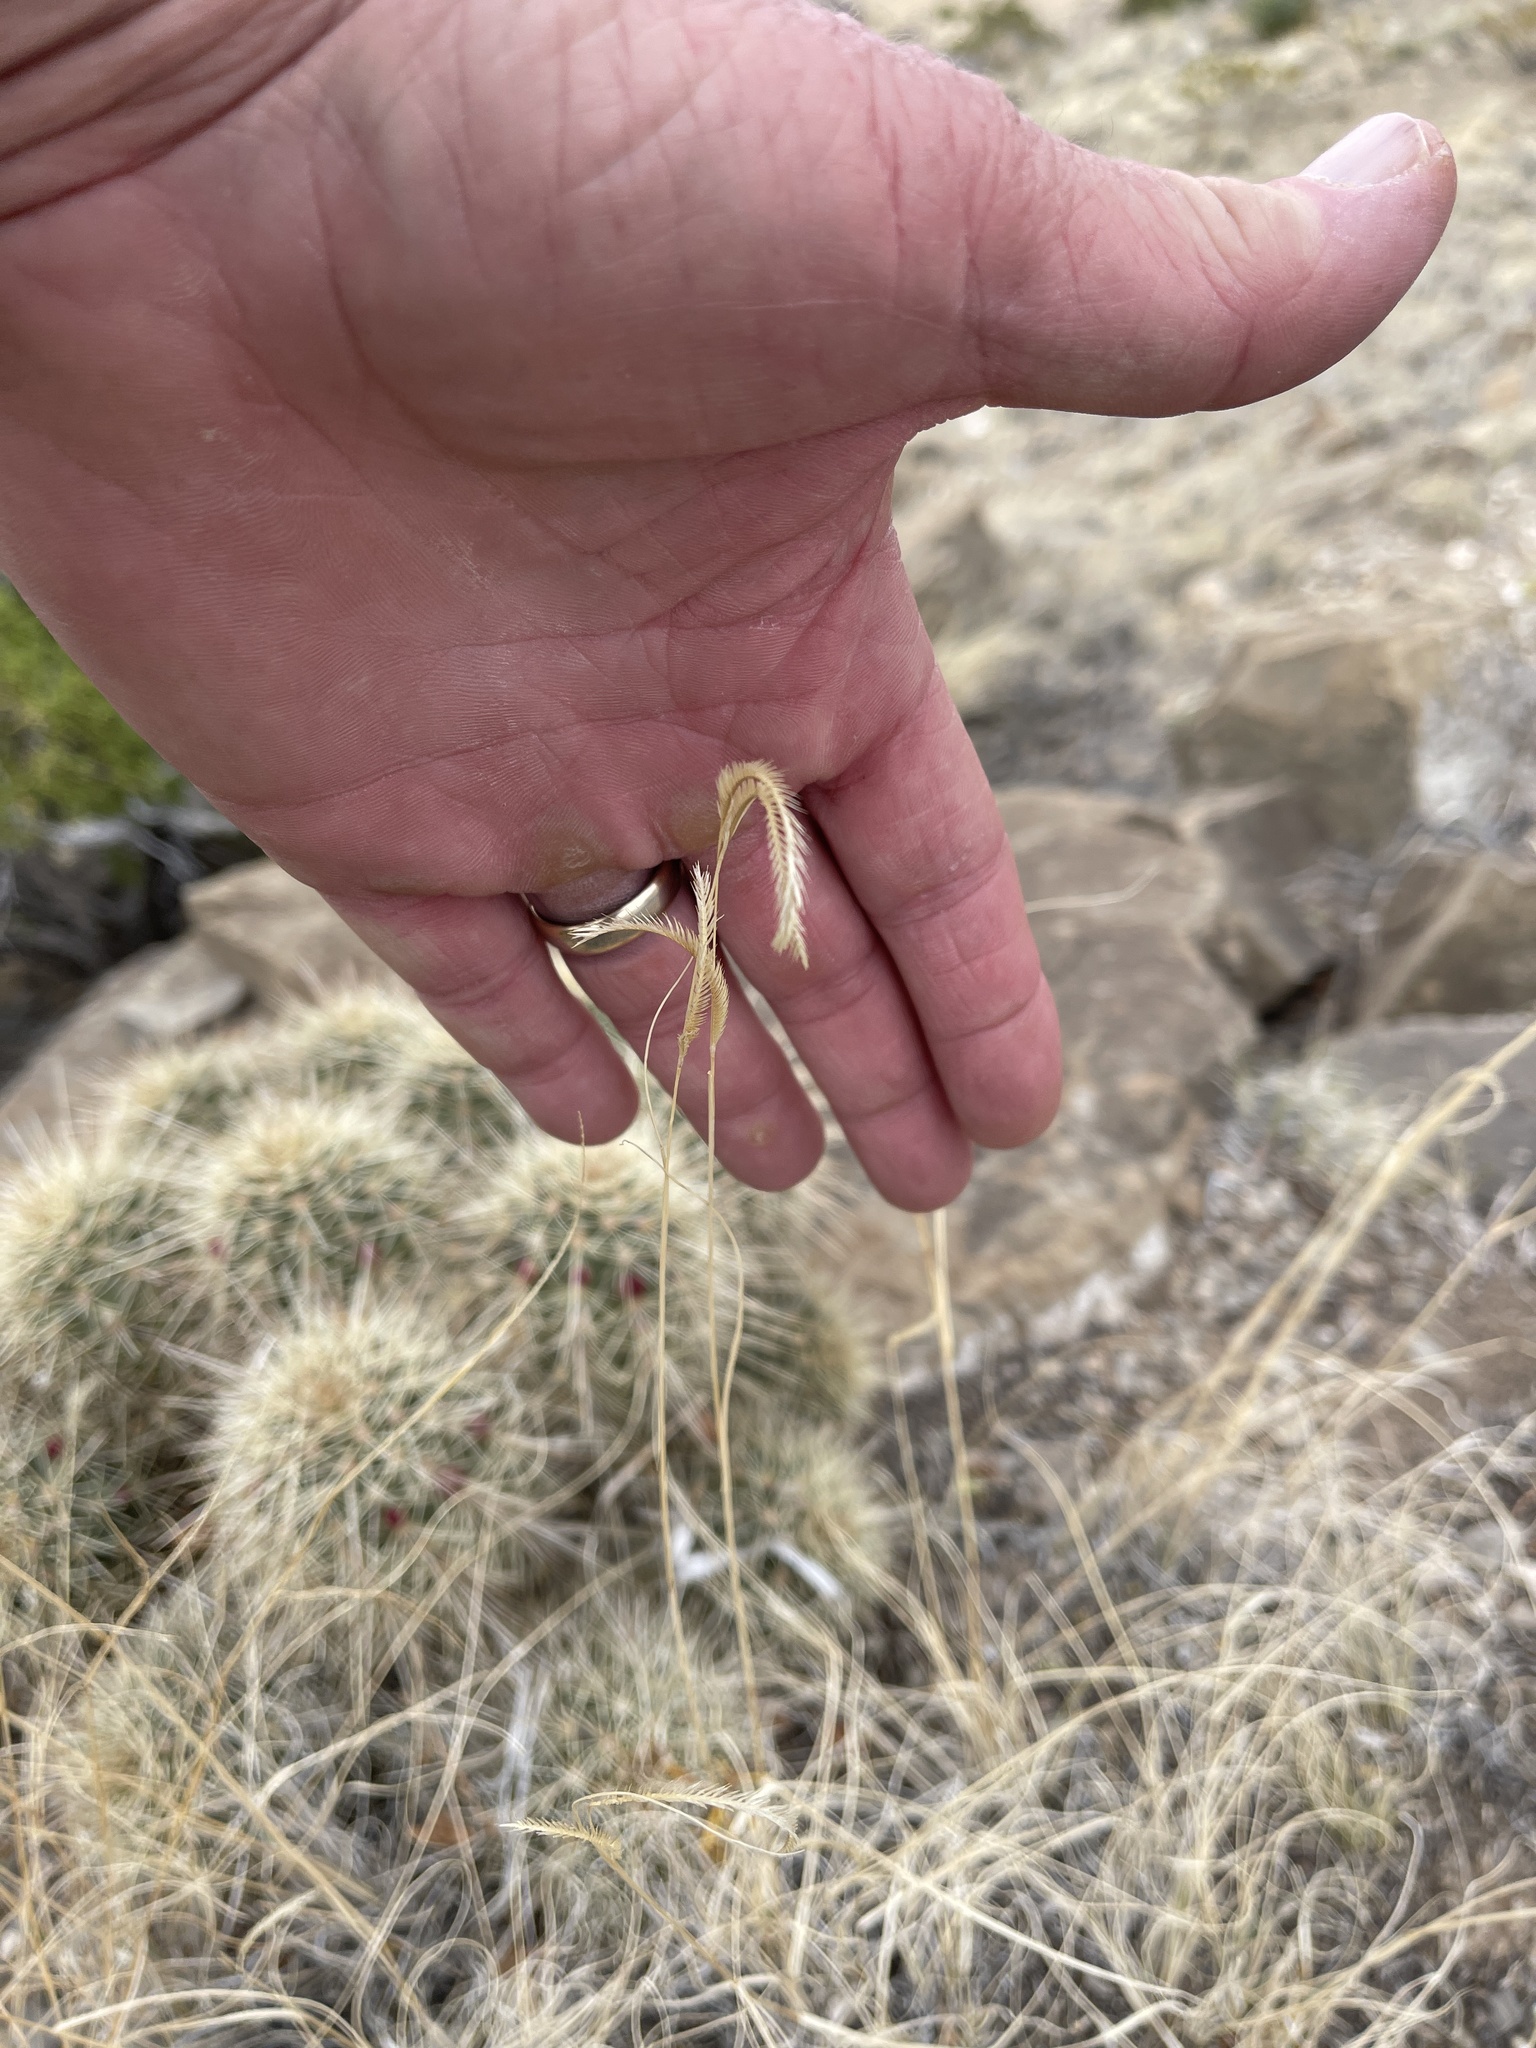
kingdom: Plantae
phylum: Tracheophyta
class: Liliopsida
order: Poales
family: Poaceae
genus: Bouteloua
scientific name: Bouteloua gracilis
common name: Blue grama
